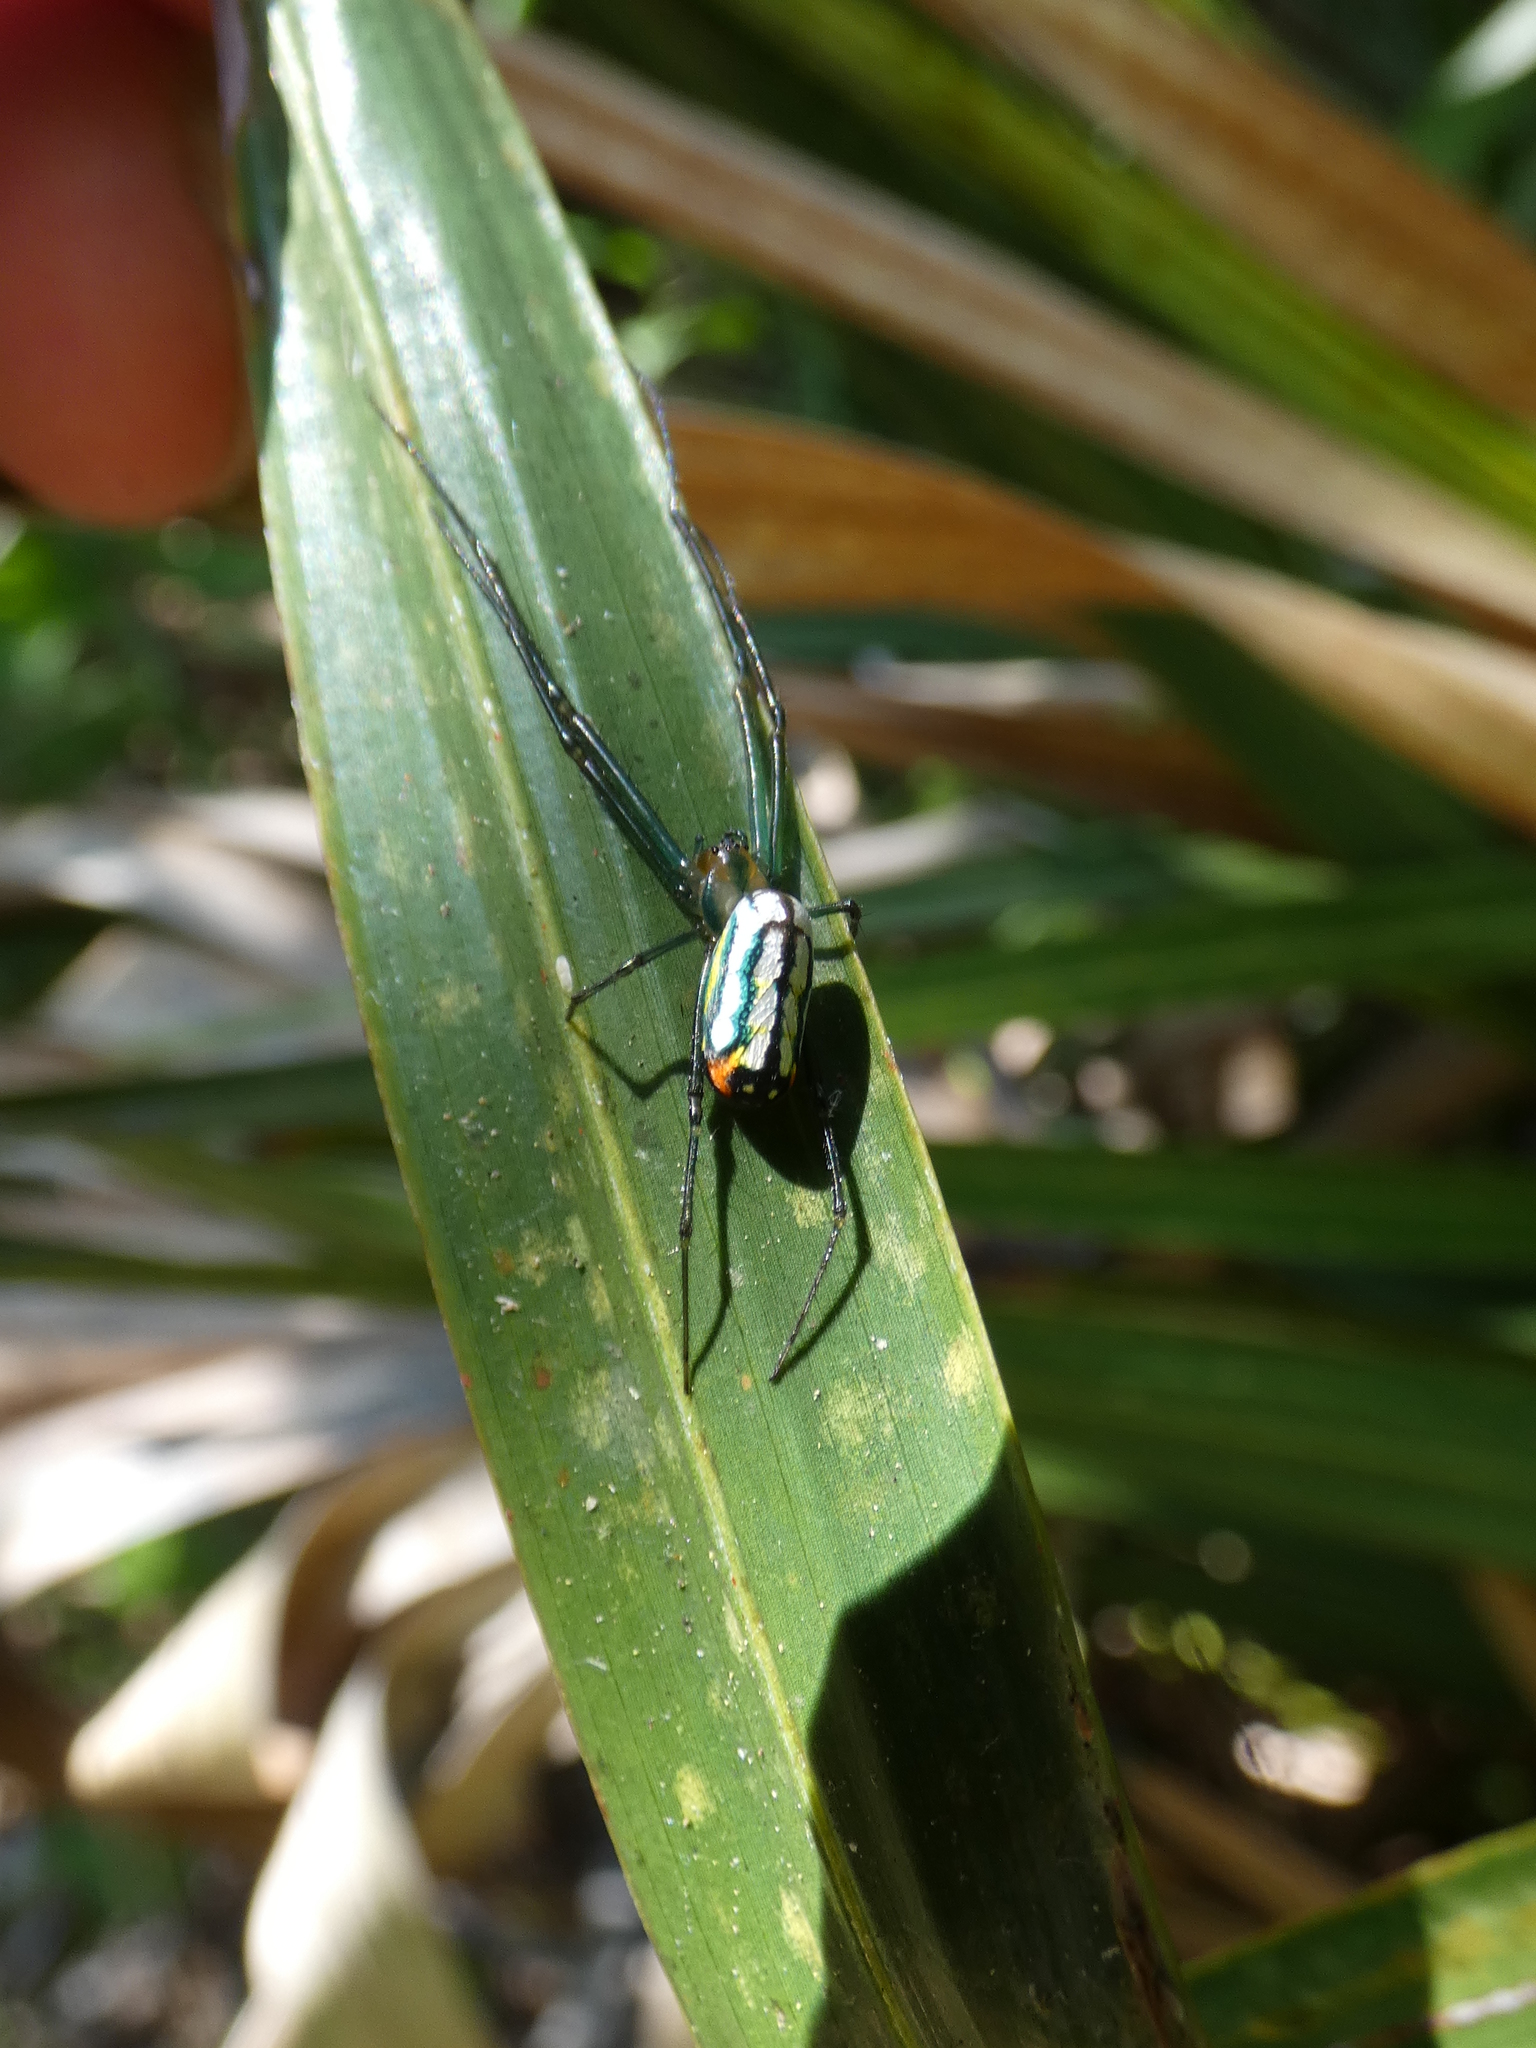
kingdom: Animalia
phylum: Arthropoda
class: Arachnida
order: Araneae
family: Tetragnathidae
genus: Leucauge
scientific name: Leucauge argyrobapta
